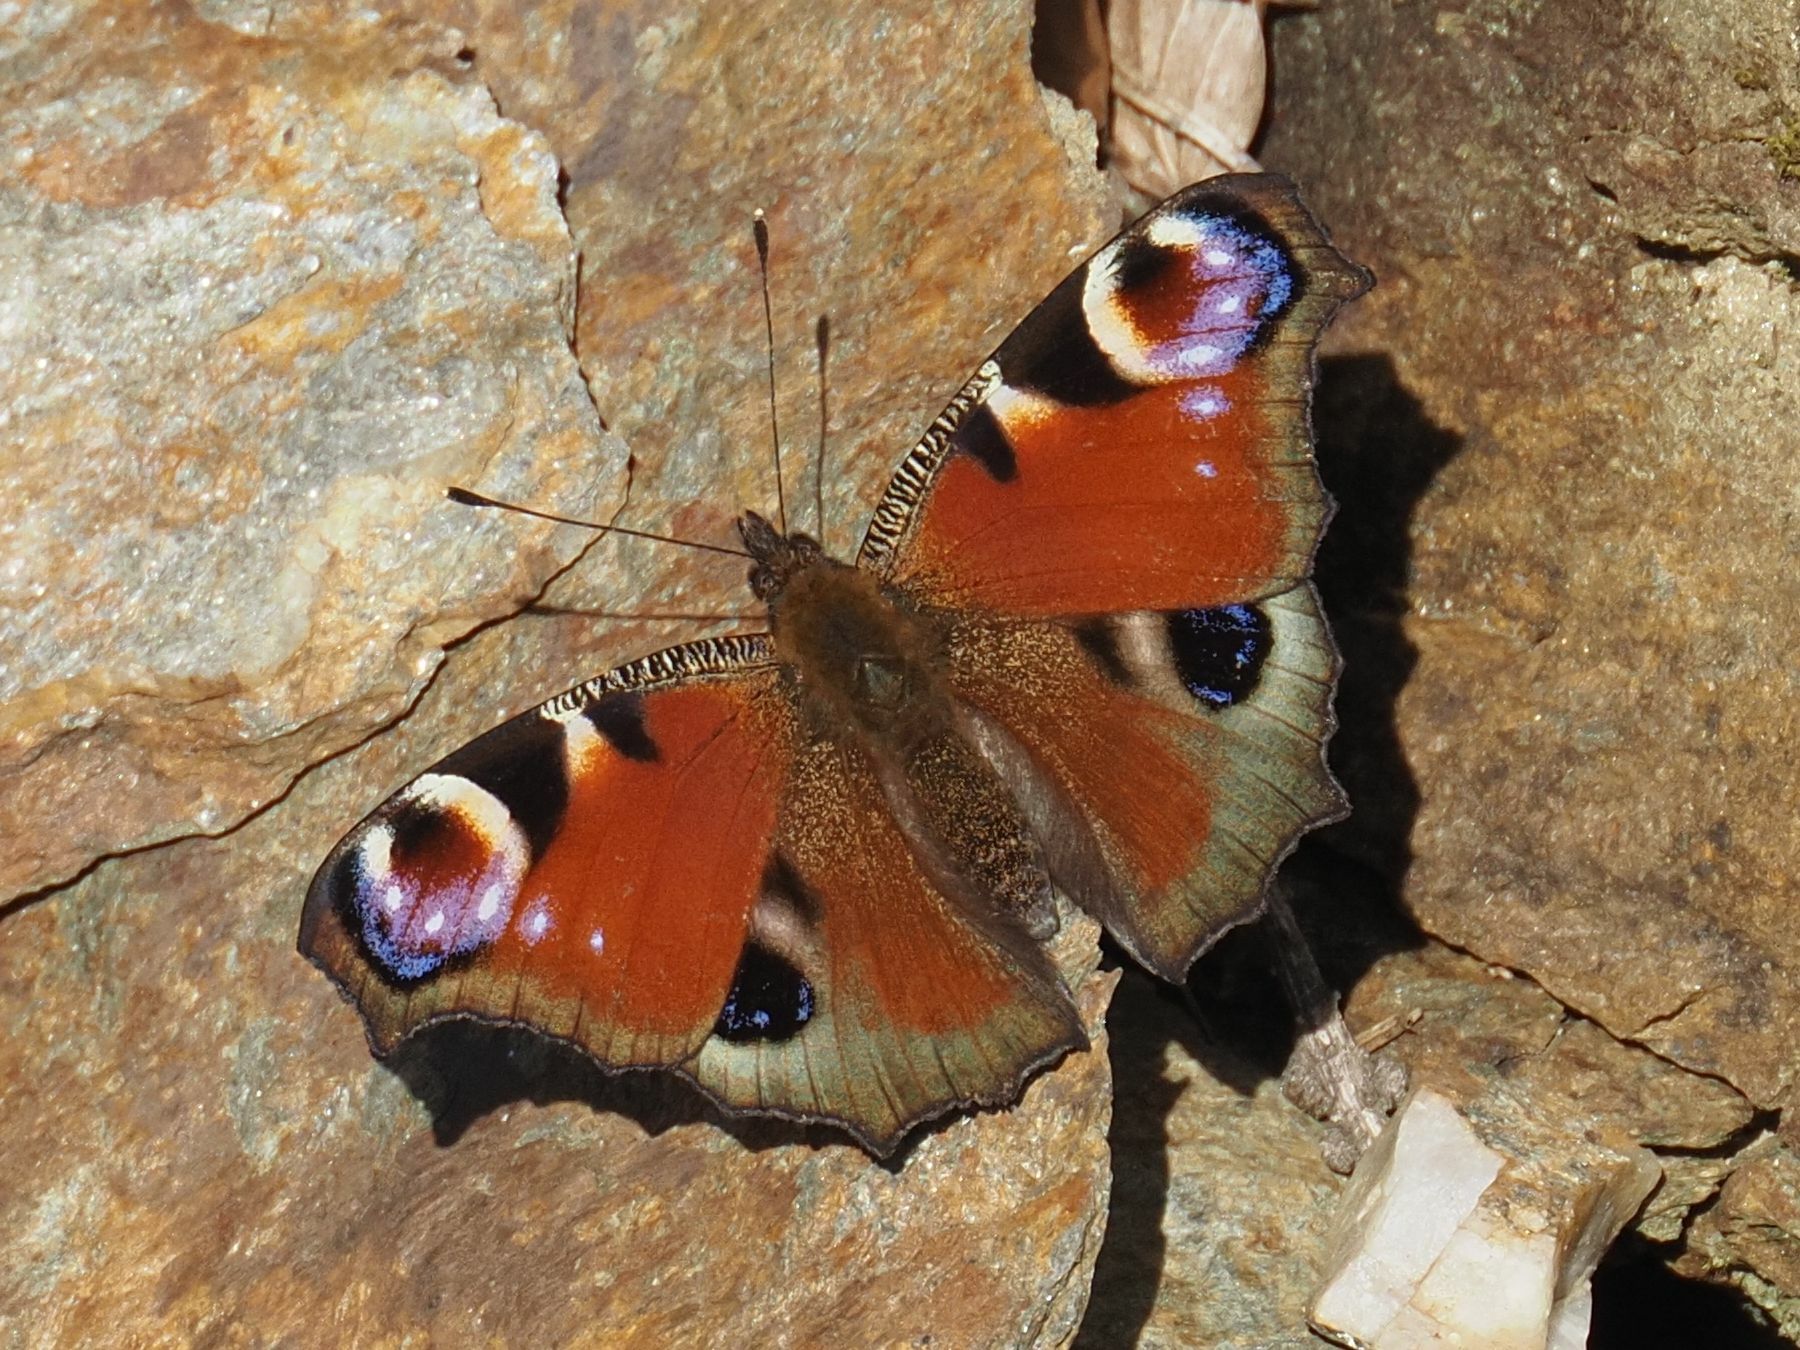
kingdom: Animalia
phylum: Arthropoda
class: Insecta
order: Lepidoptera
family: Nymphalidae
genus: Aglais
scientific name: Aglais io
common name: Peacock
